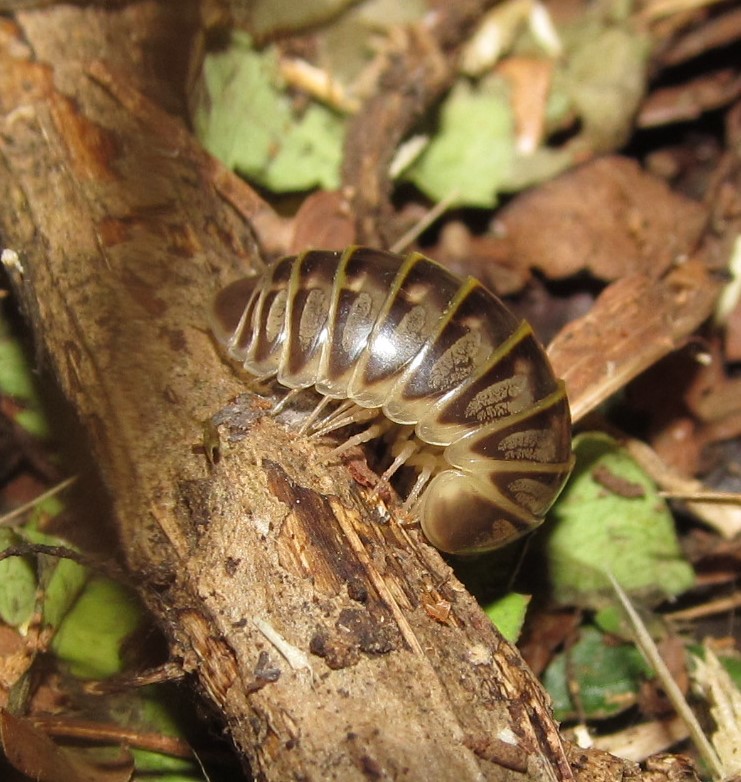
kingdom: Animalia
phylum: Arthropoda
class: Diplopoda
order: Glomerida
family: Glomeridae
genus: Peplomeris
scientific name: Peplomeris magna
